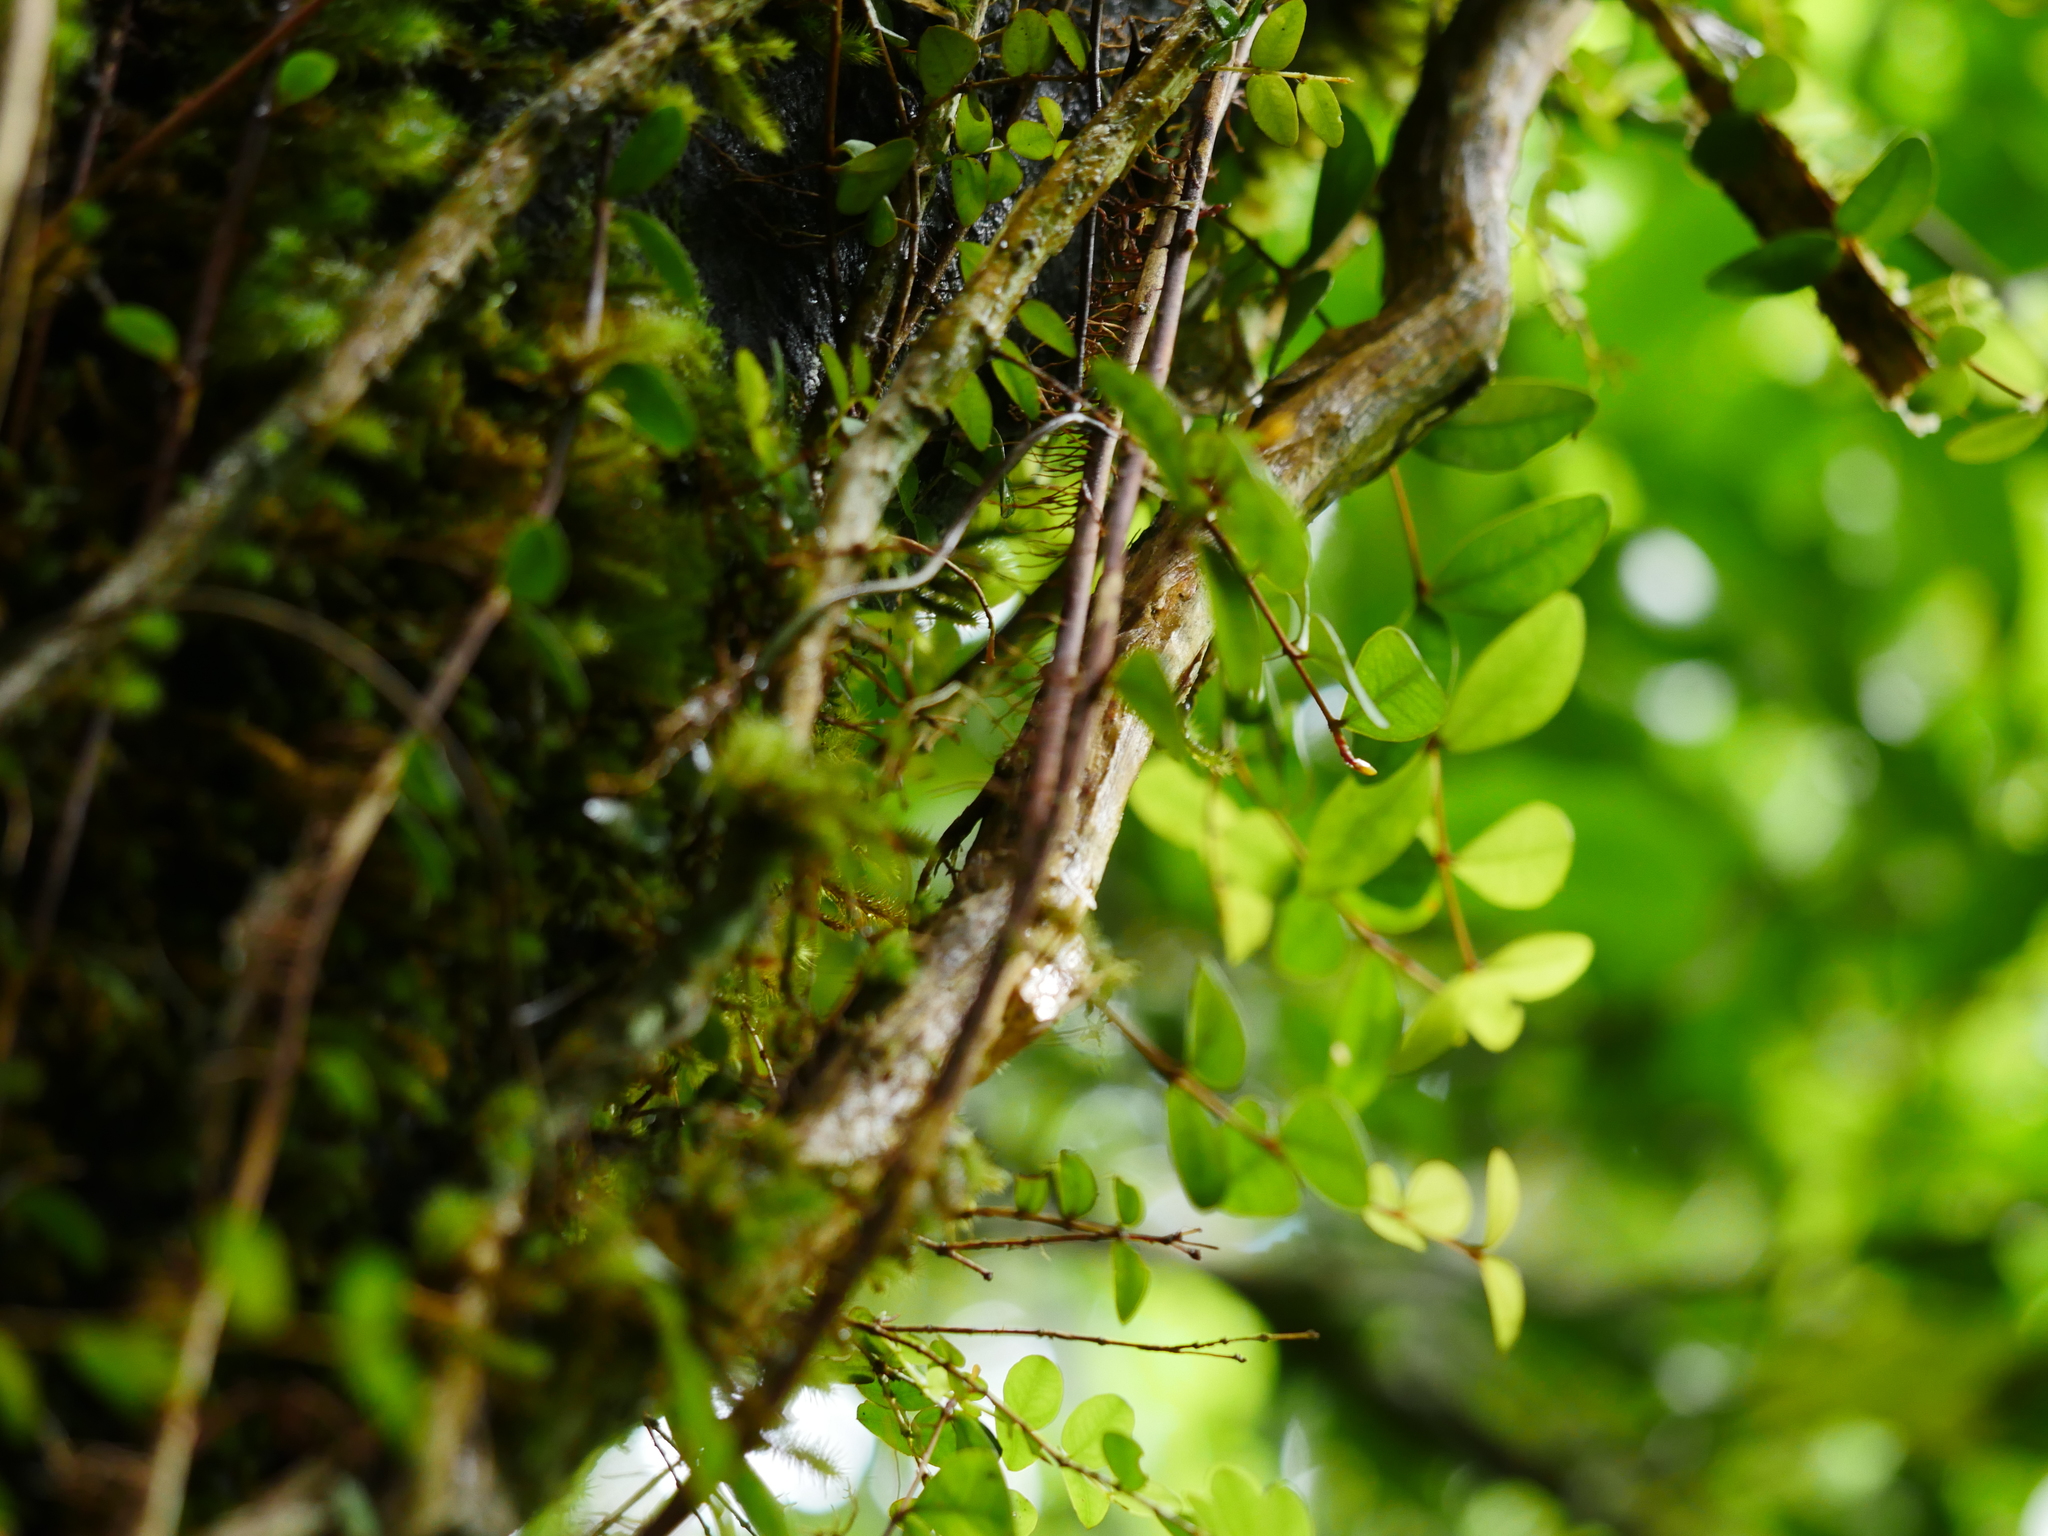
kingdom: Plantae
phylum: Tracheophyta
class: Magnoliopsida
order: Myrtales
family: Myrtaceae
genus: Metrosideros
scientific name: Metrosideros diffusa
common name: Small ratavine
